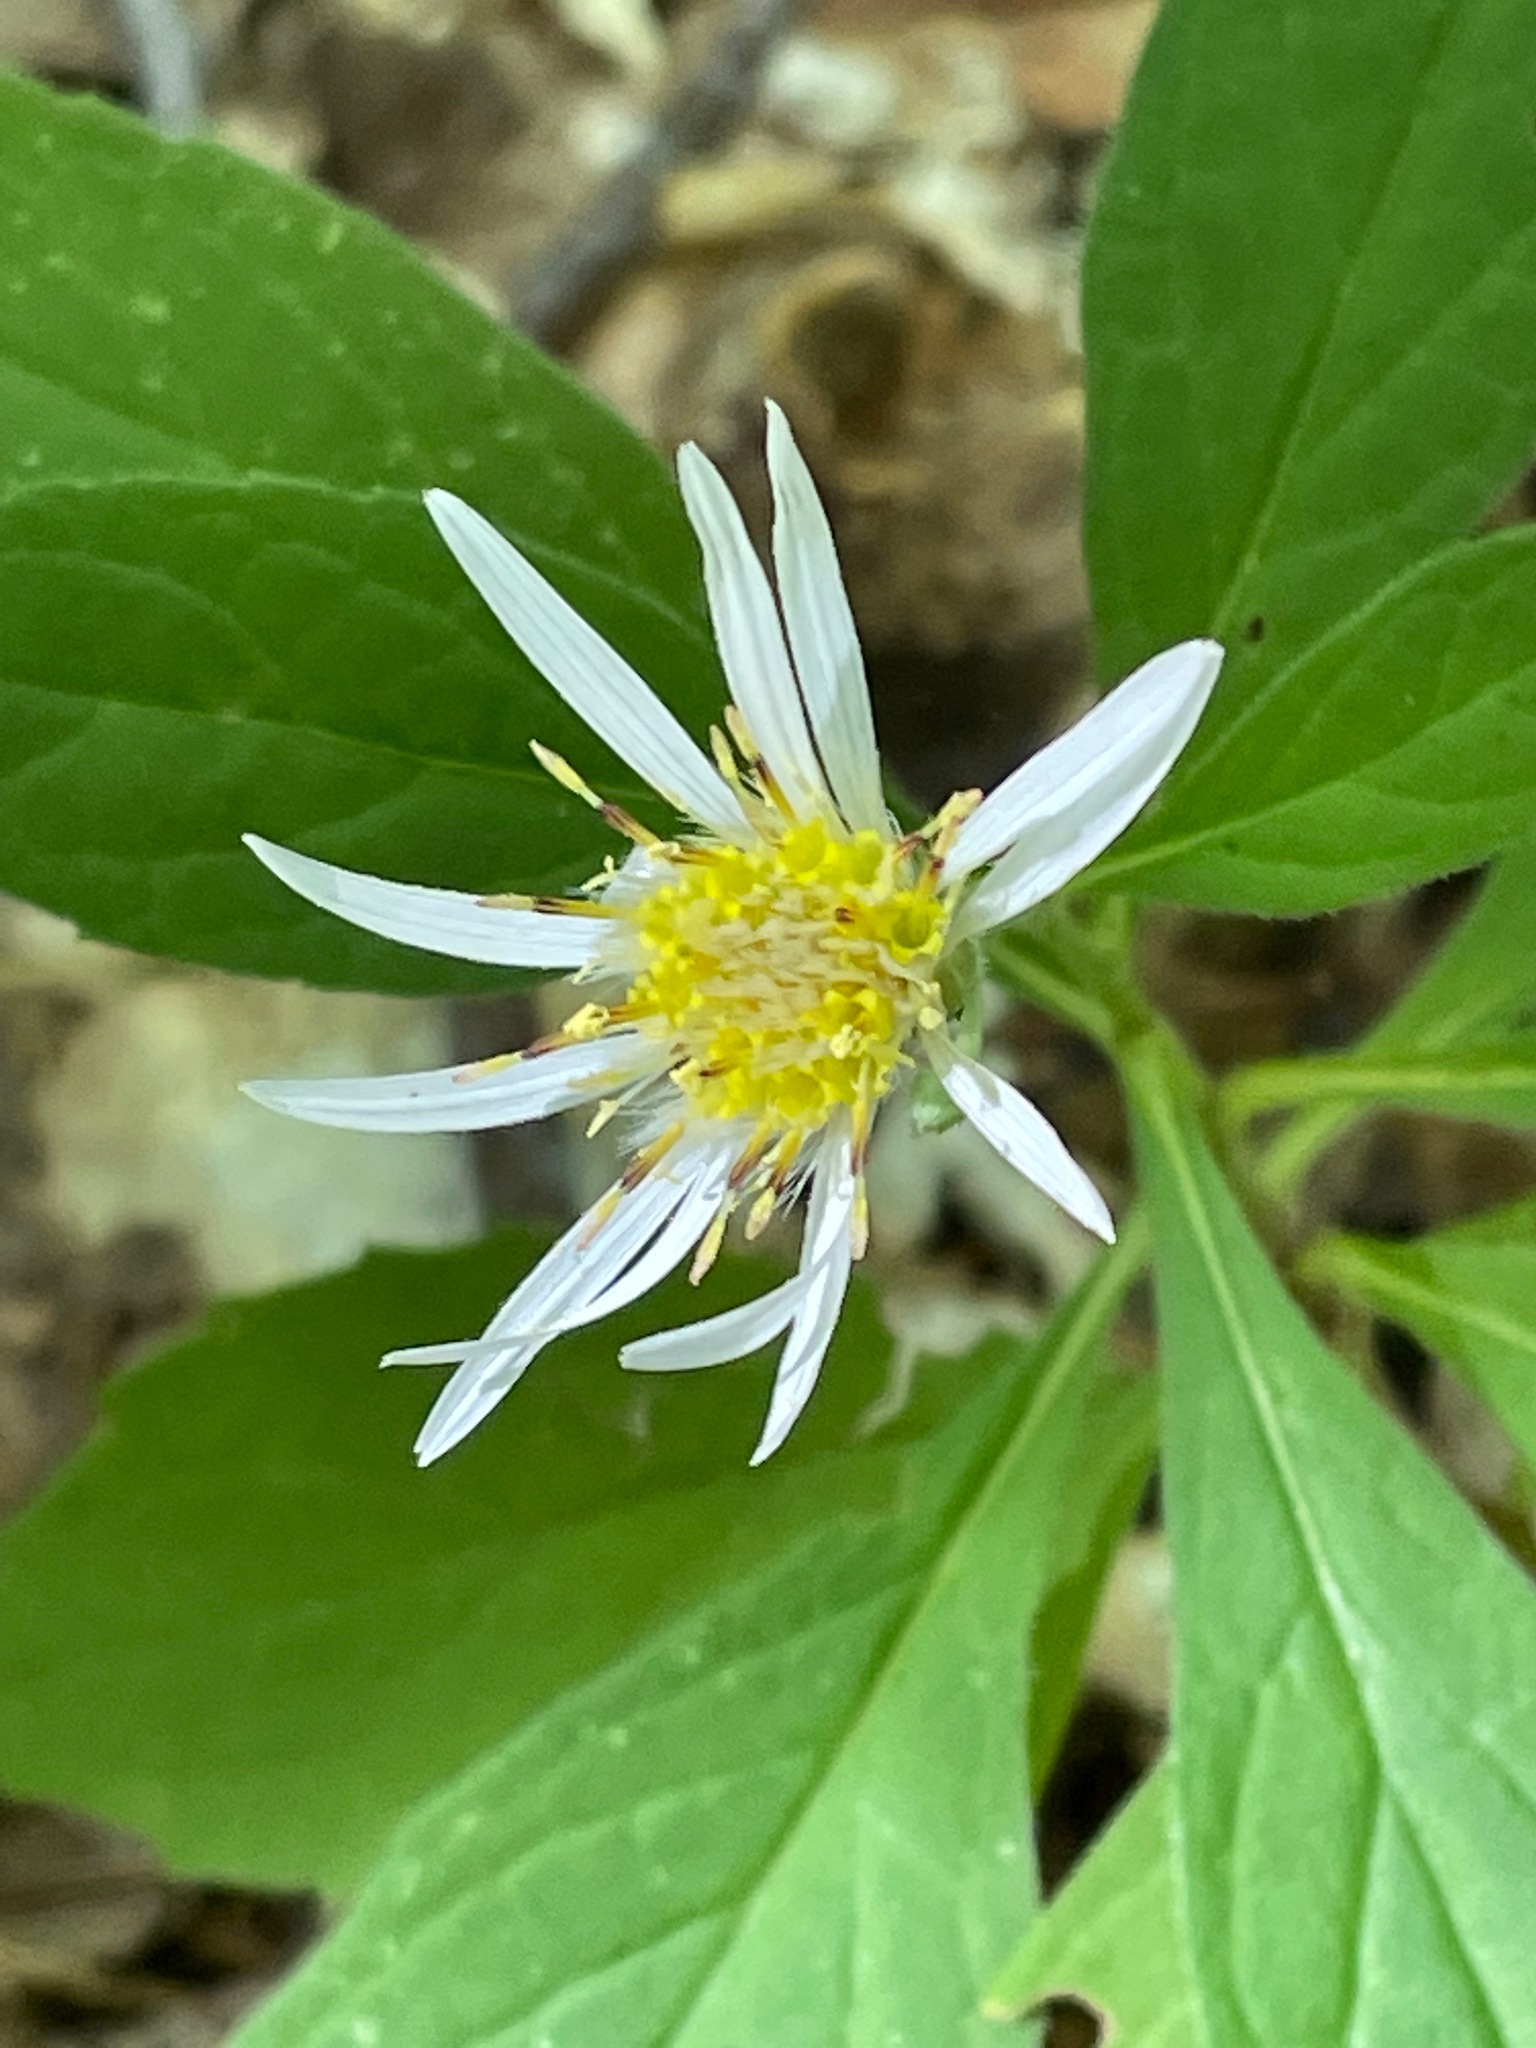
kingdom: Plantae
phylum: Tracheophyta
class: Magnoliopsida
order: Asterales
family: Asteraceae
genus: Oclemena
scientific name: Oclemena acuminata
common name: Mountain aster
